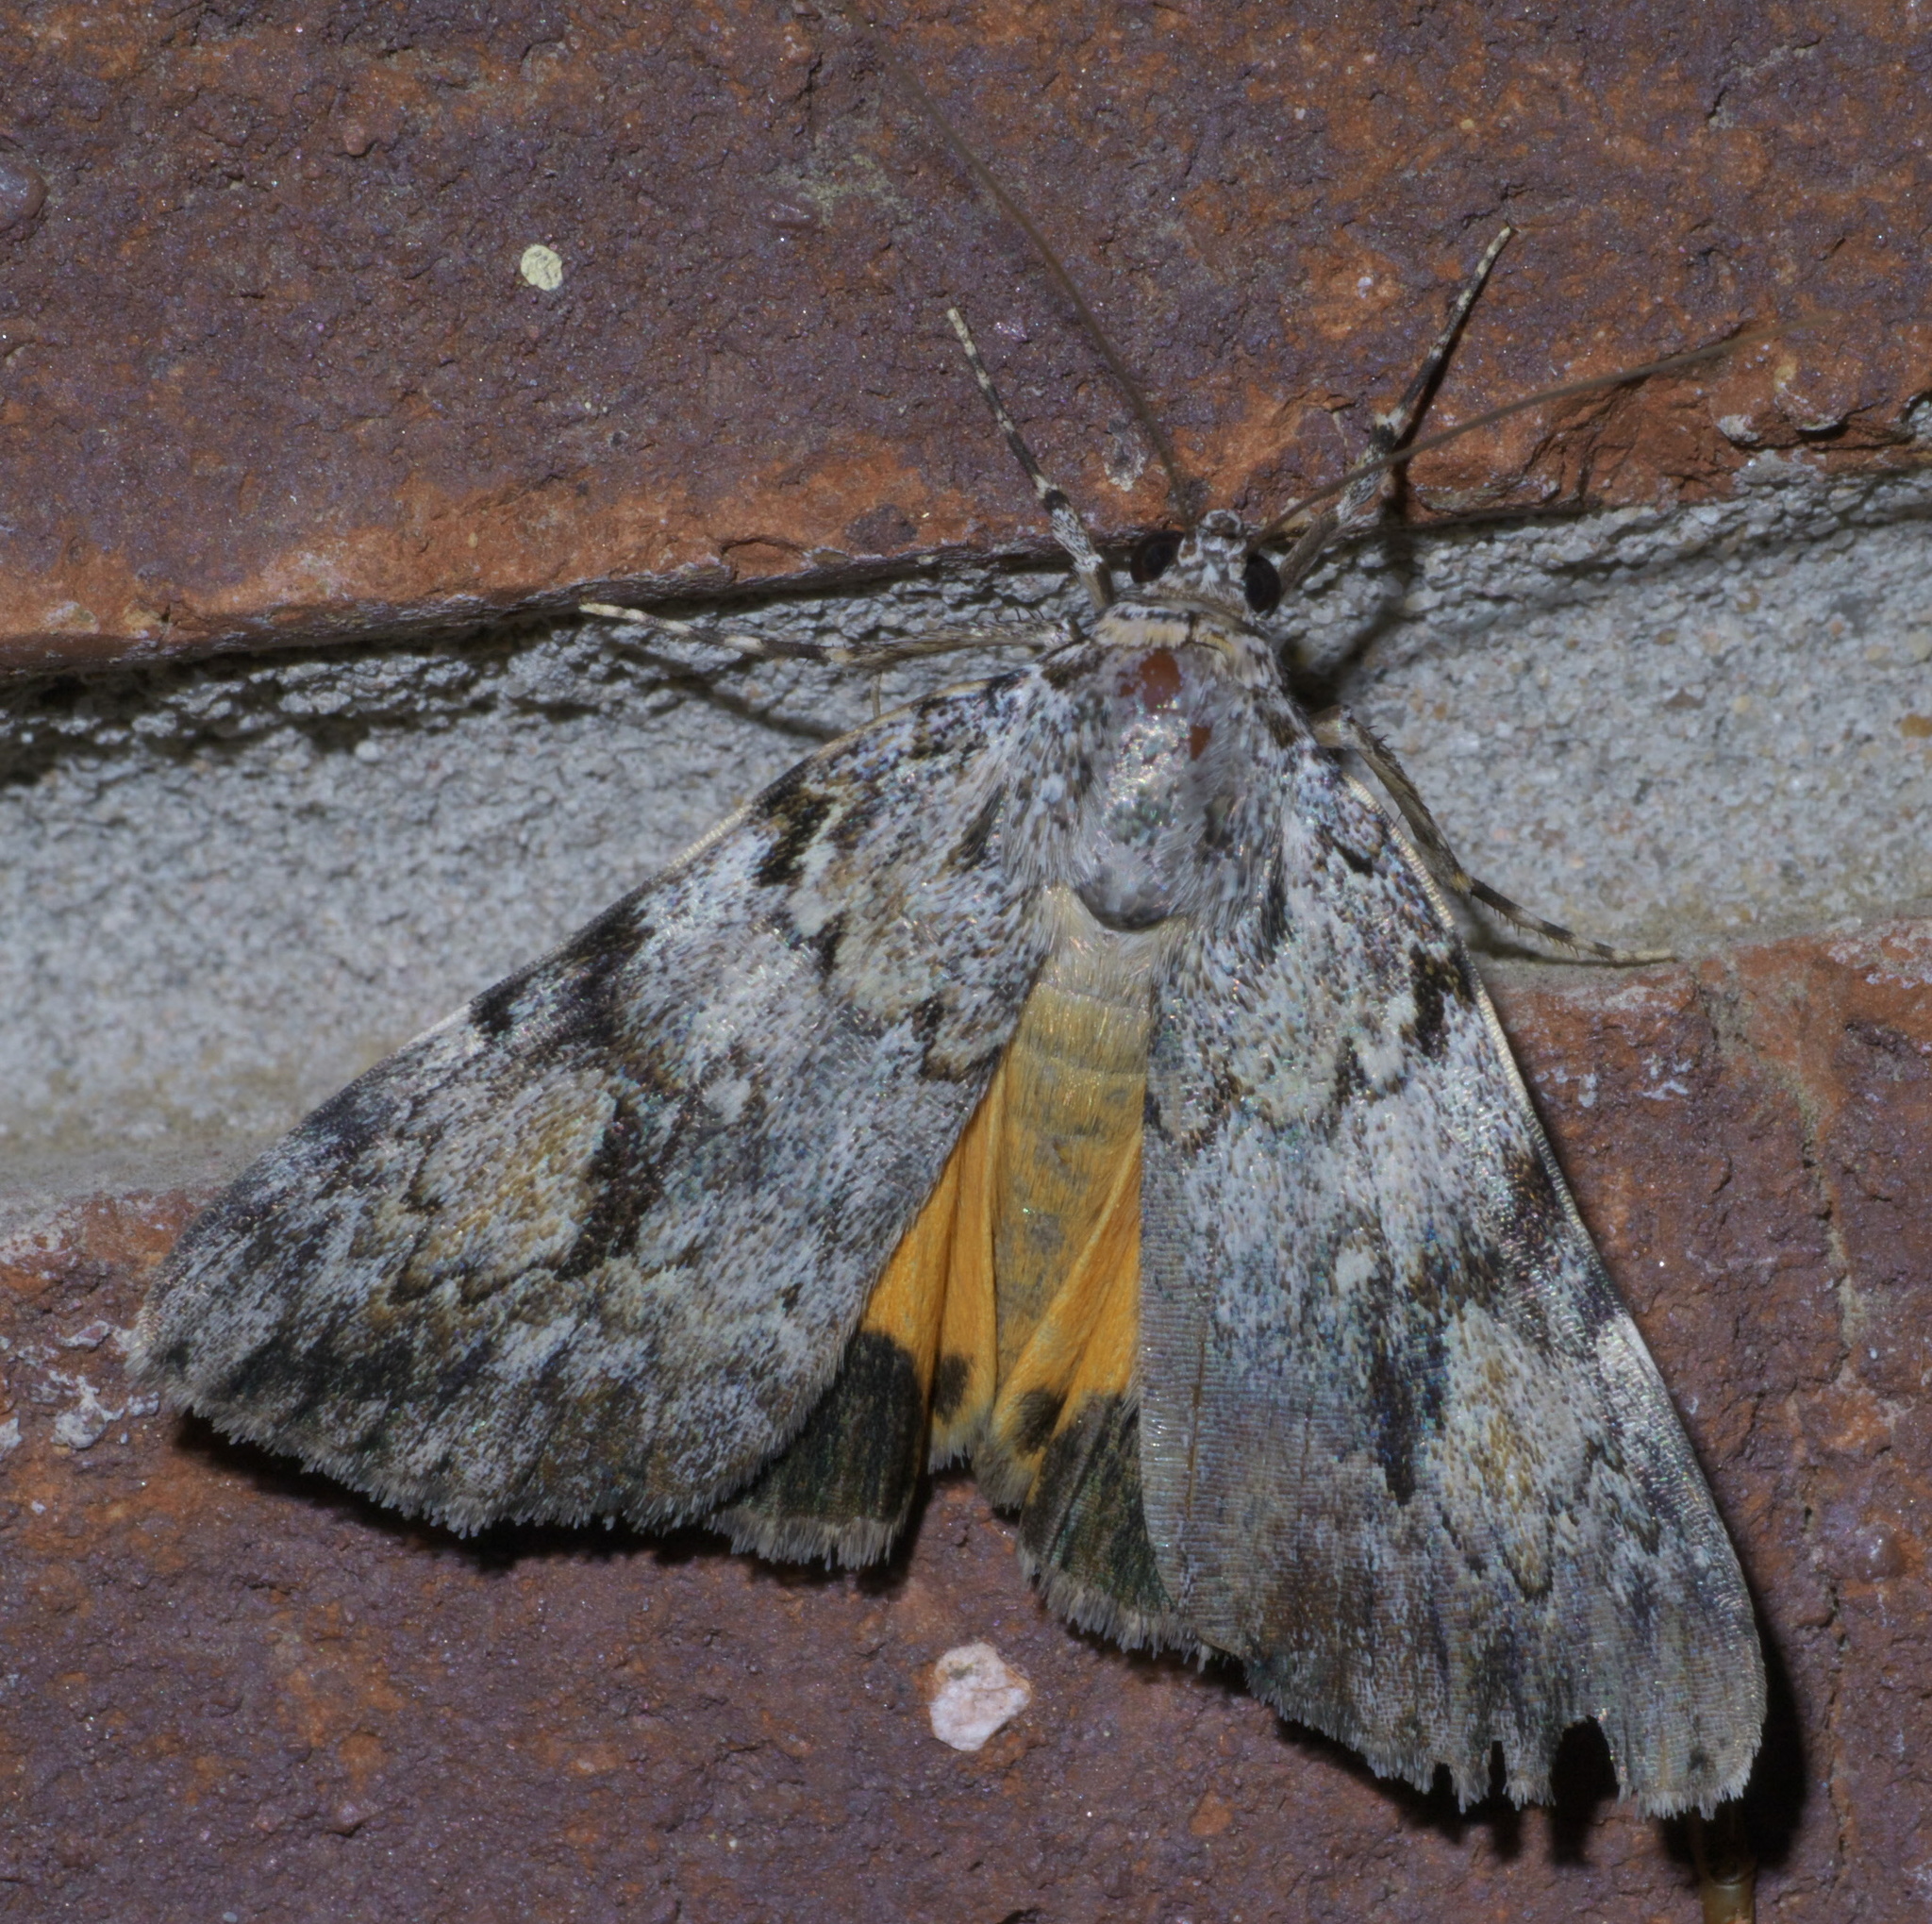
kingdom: Animalia
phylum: Arthropoda
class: Insecta
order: Lepidoptera
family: Erebidae
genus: Catocala
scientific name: Catocala amica
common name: Girlfriend underwing
